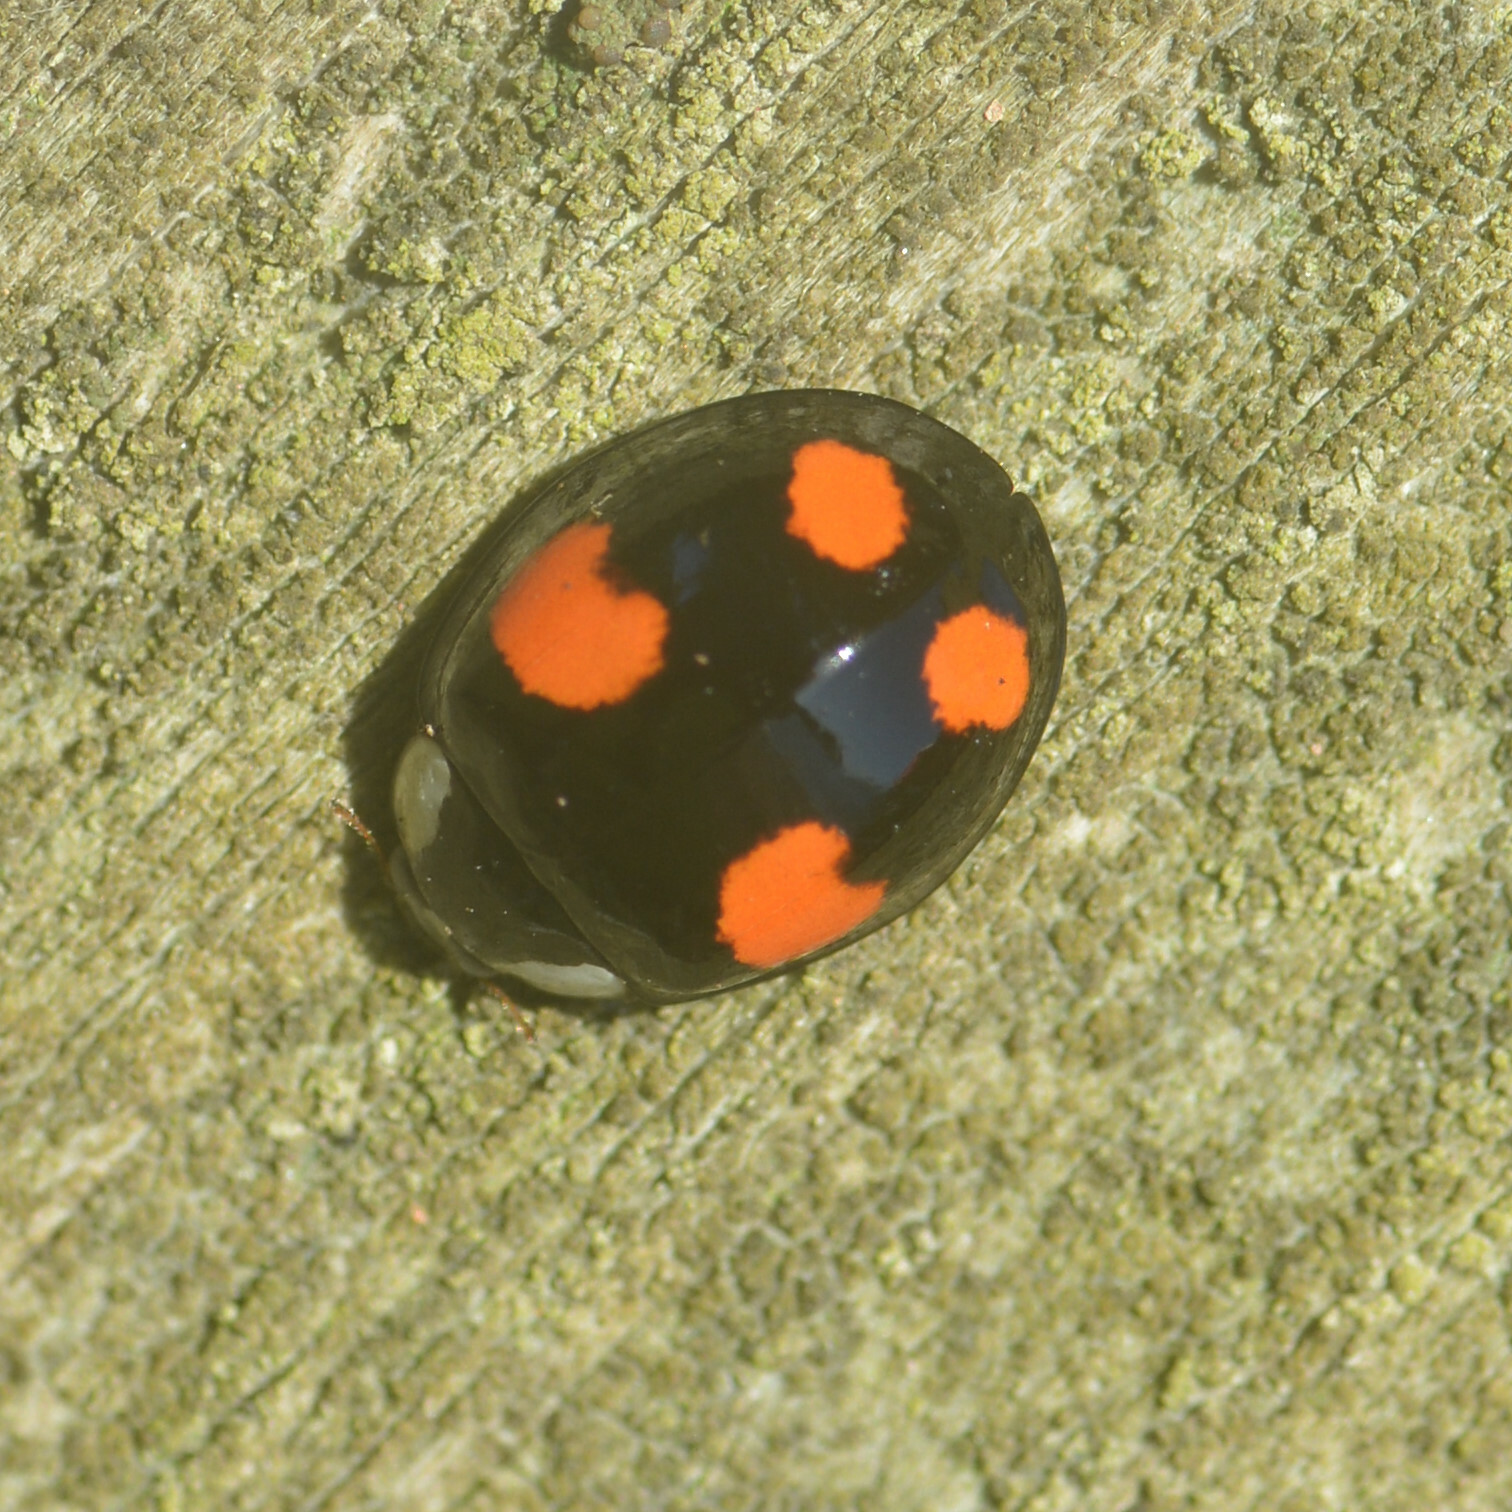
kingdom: Animalia
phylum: Arthropoda
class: Insecta
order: Coleoptera
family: Coccinellidae
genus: Harmonia
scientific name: Harmonia axyridis
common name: Harlequin ladybird
